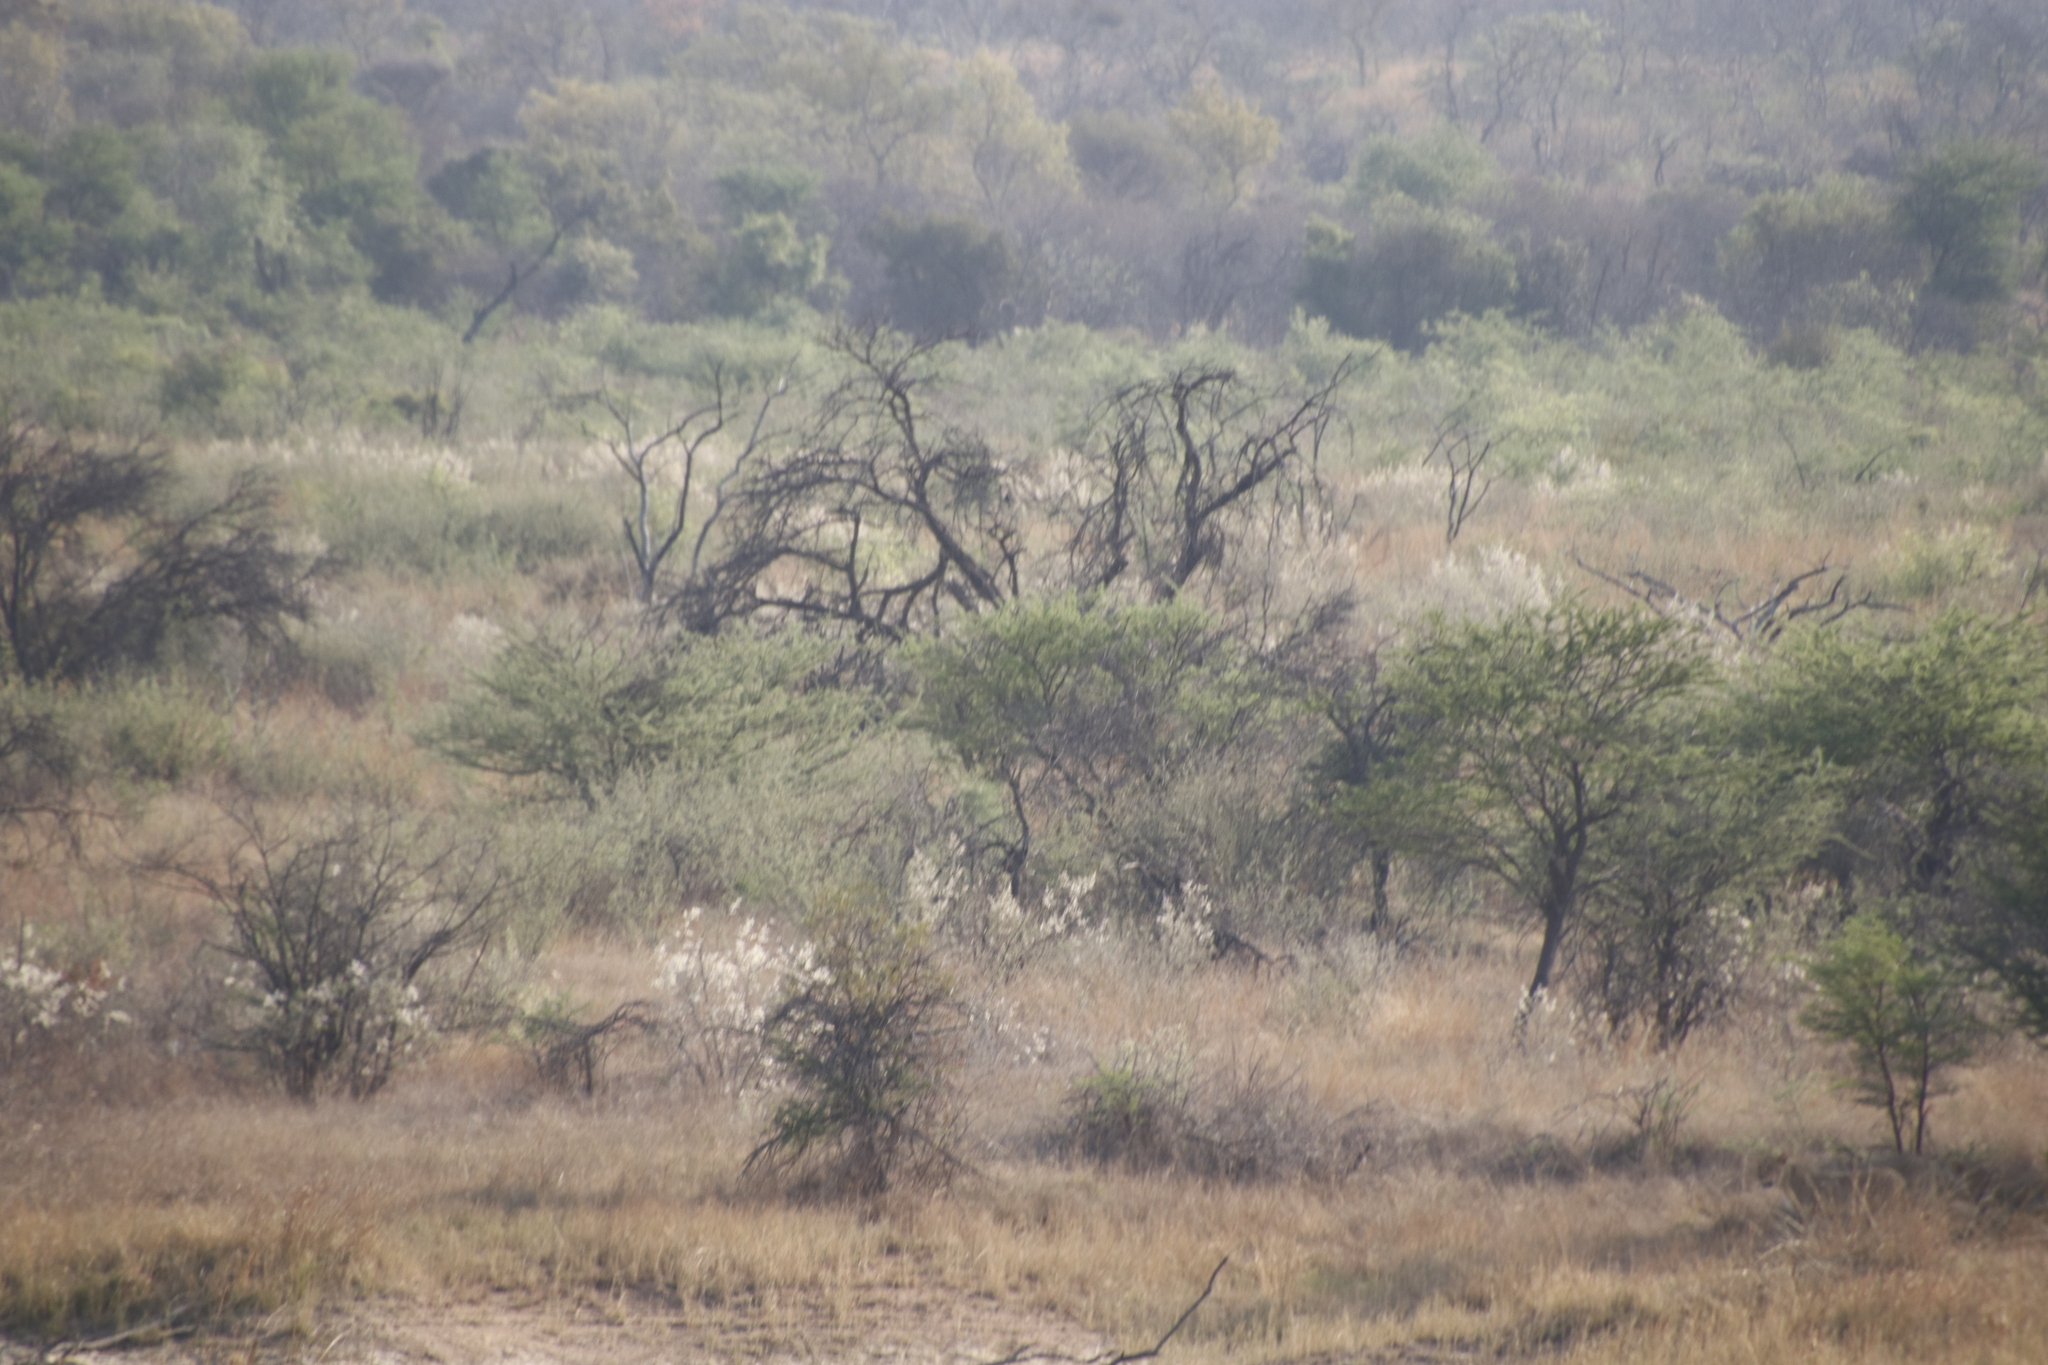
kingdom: Animalia
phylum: Chordata
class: Mammalia
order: Carnivora
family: Felidae
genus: Panthera
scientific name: Panthera leo
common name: Lion
